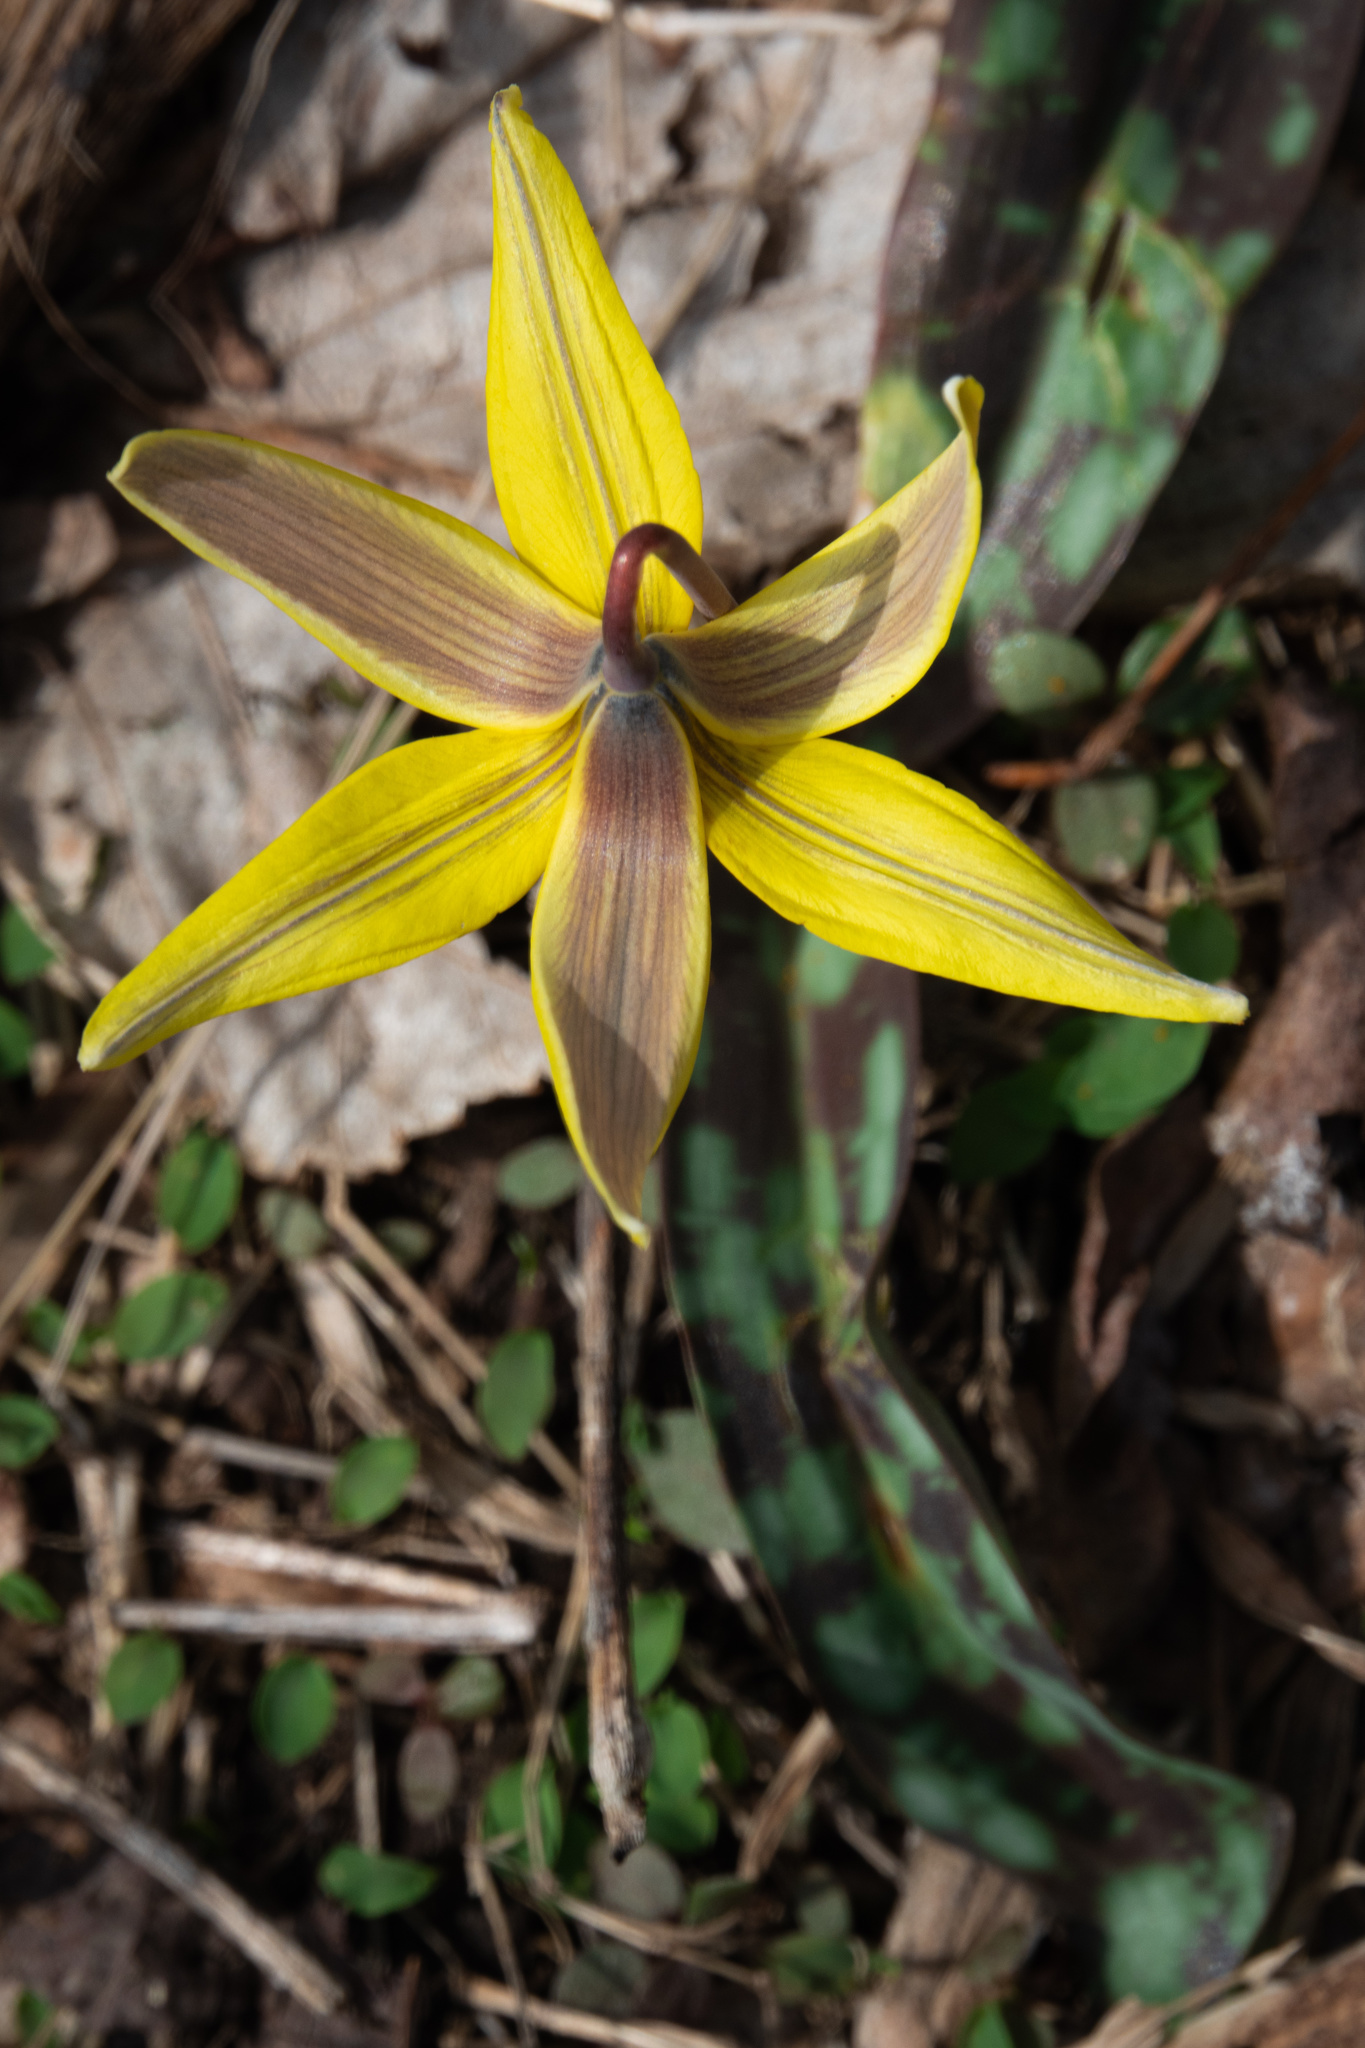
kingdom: Plantae
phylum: Tracheophyta
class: Liliopsida
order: Liliales
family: Liliaceae
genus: Erythronium
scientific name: Erythronium americanum
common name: Yellow adder's-tongue
